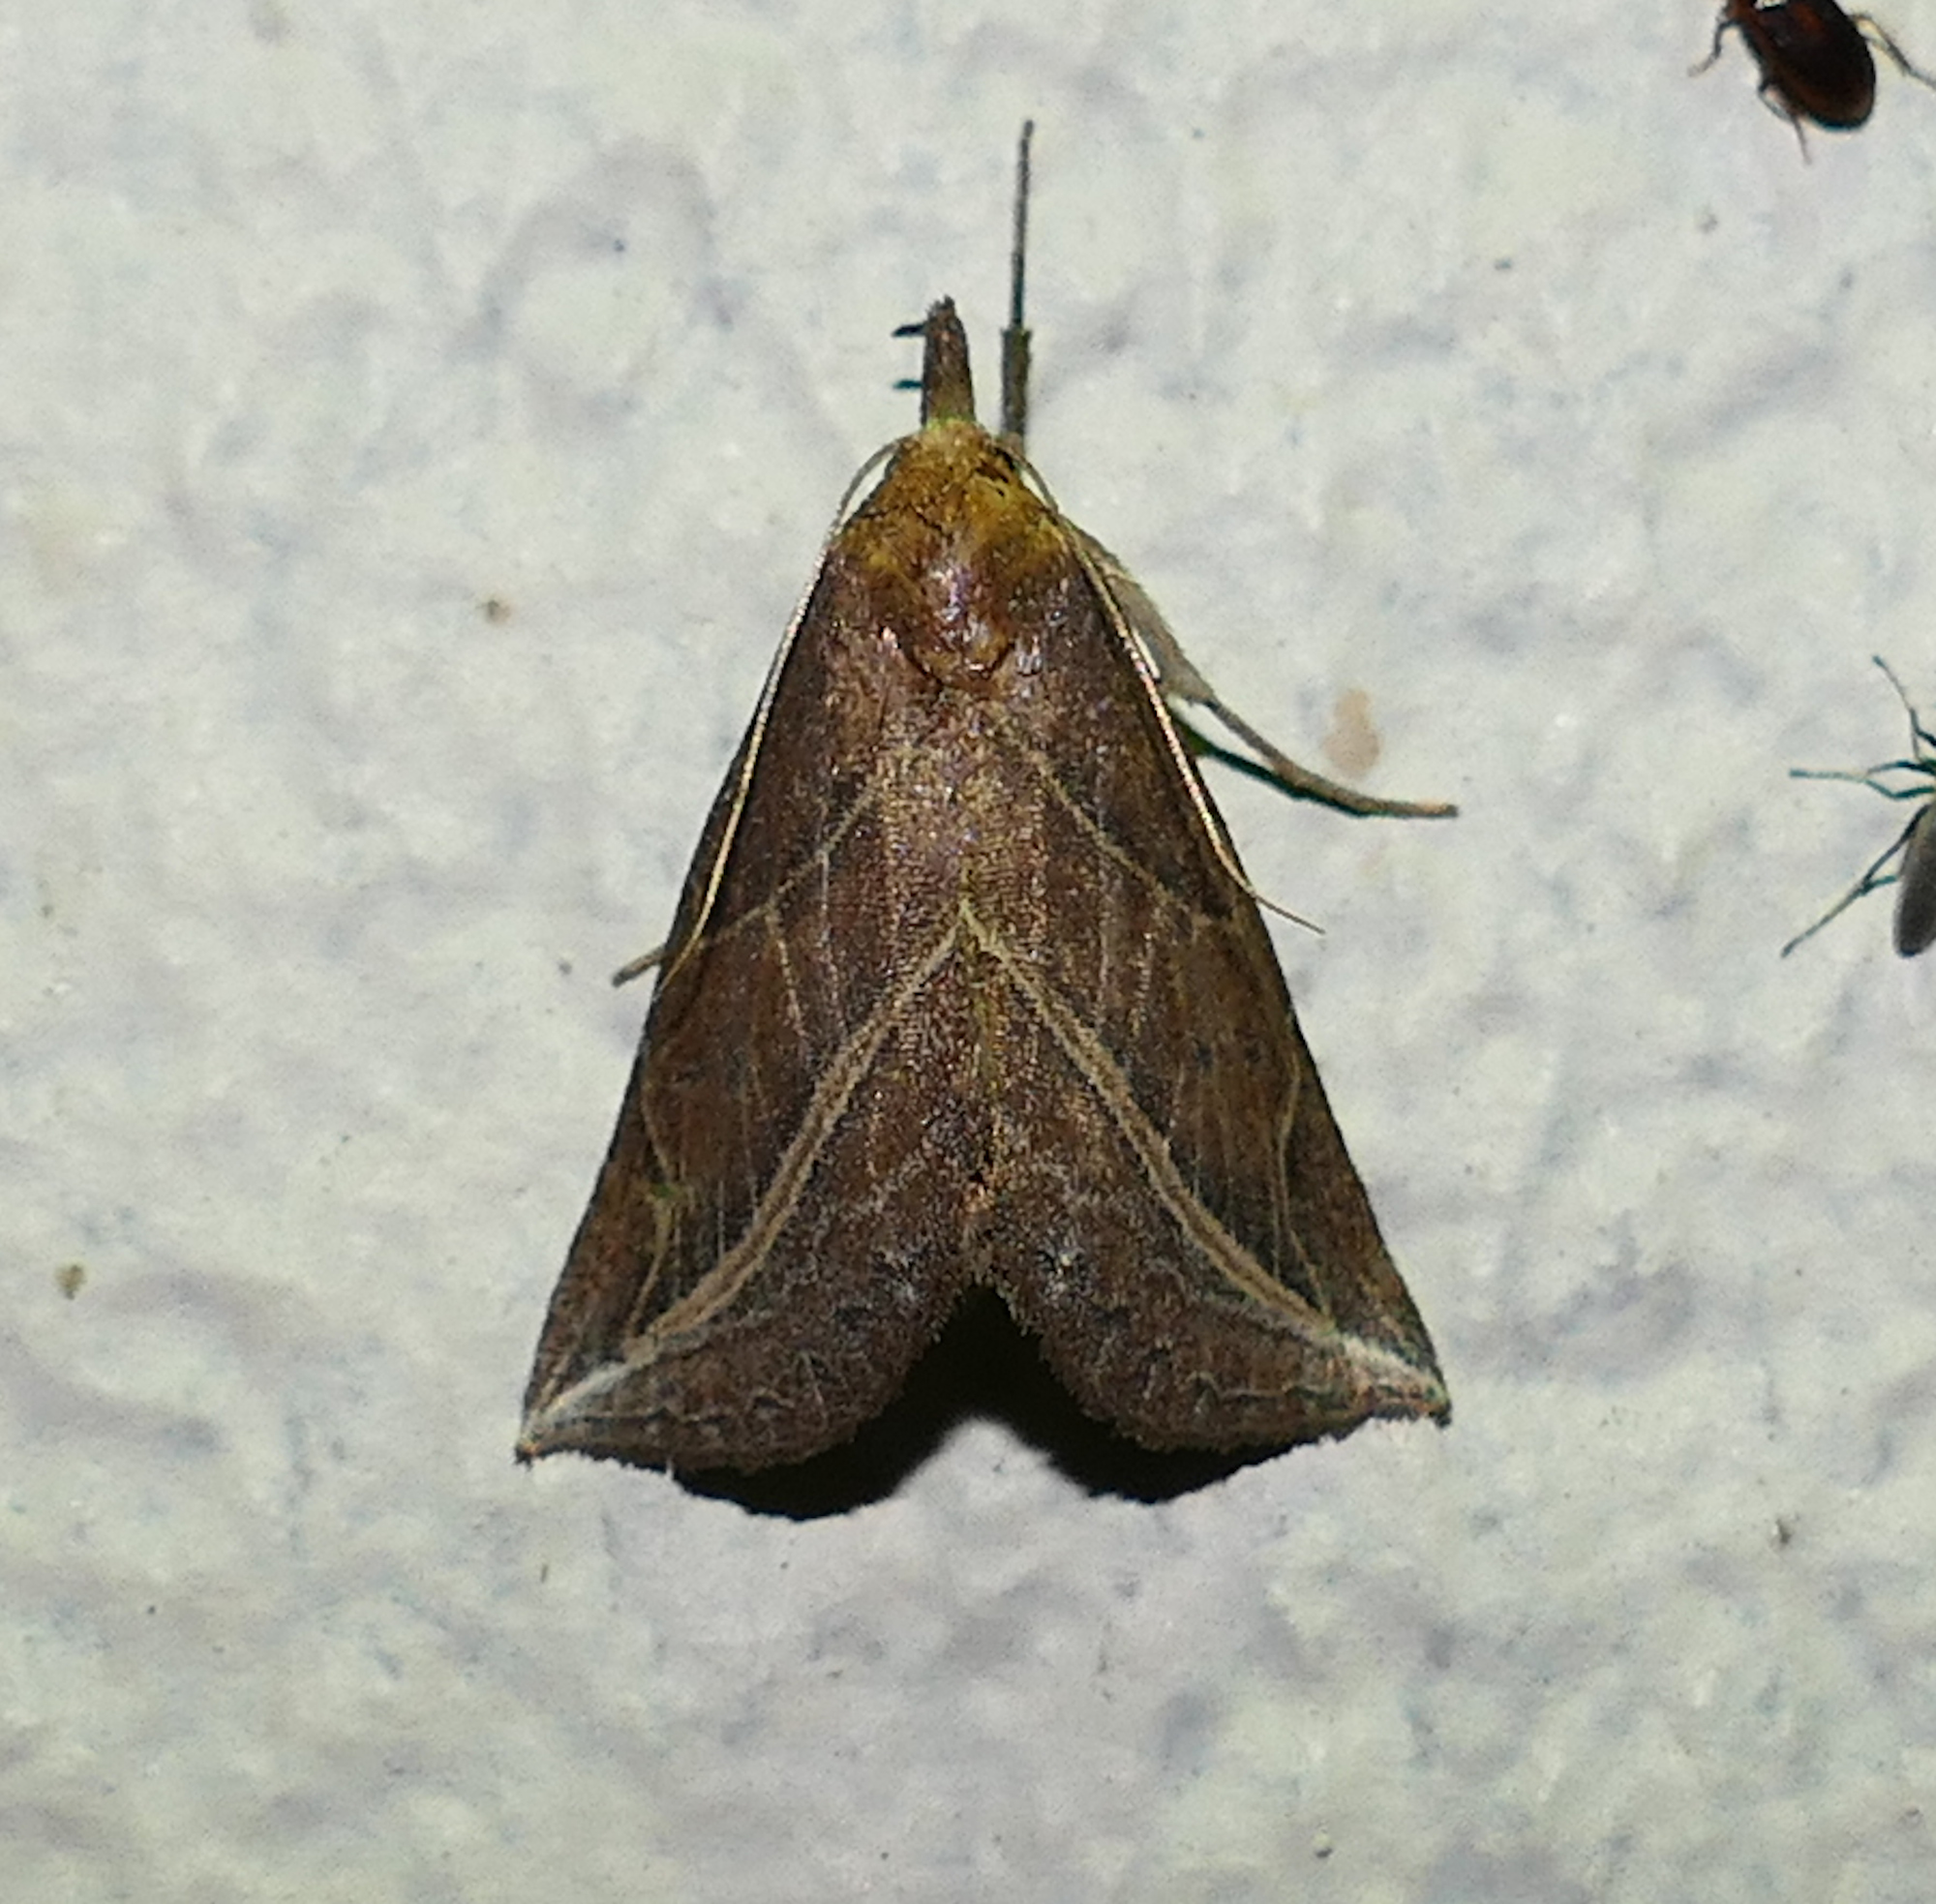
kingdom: Animalia
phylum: Arthropoda
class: Insecta
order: Lepidoptera
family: Erebidae
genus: Phyprosopus
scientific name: Phyprosopus callitrichoides
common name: Curved-lined owlet
